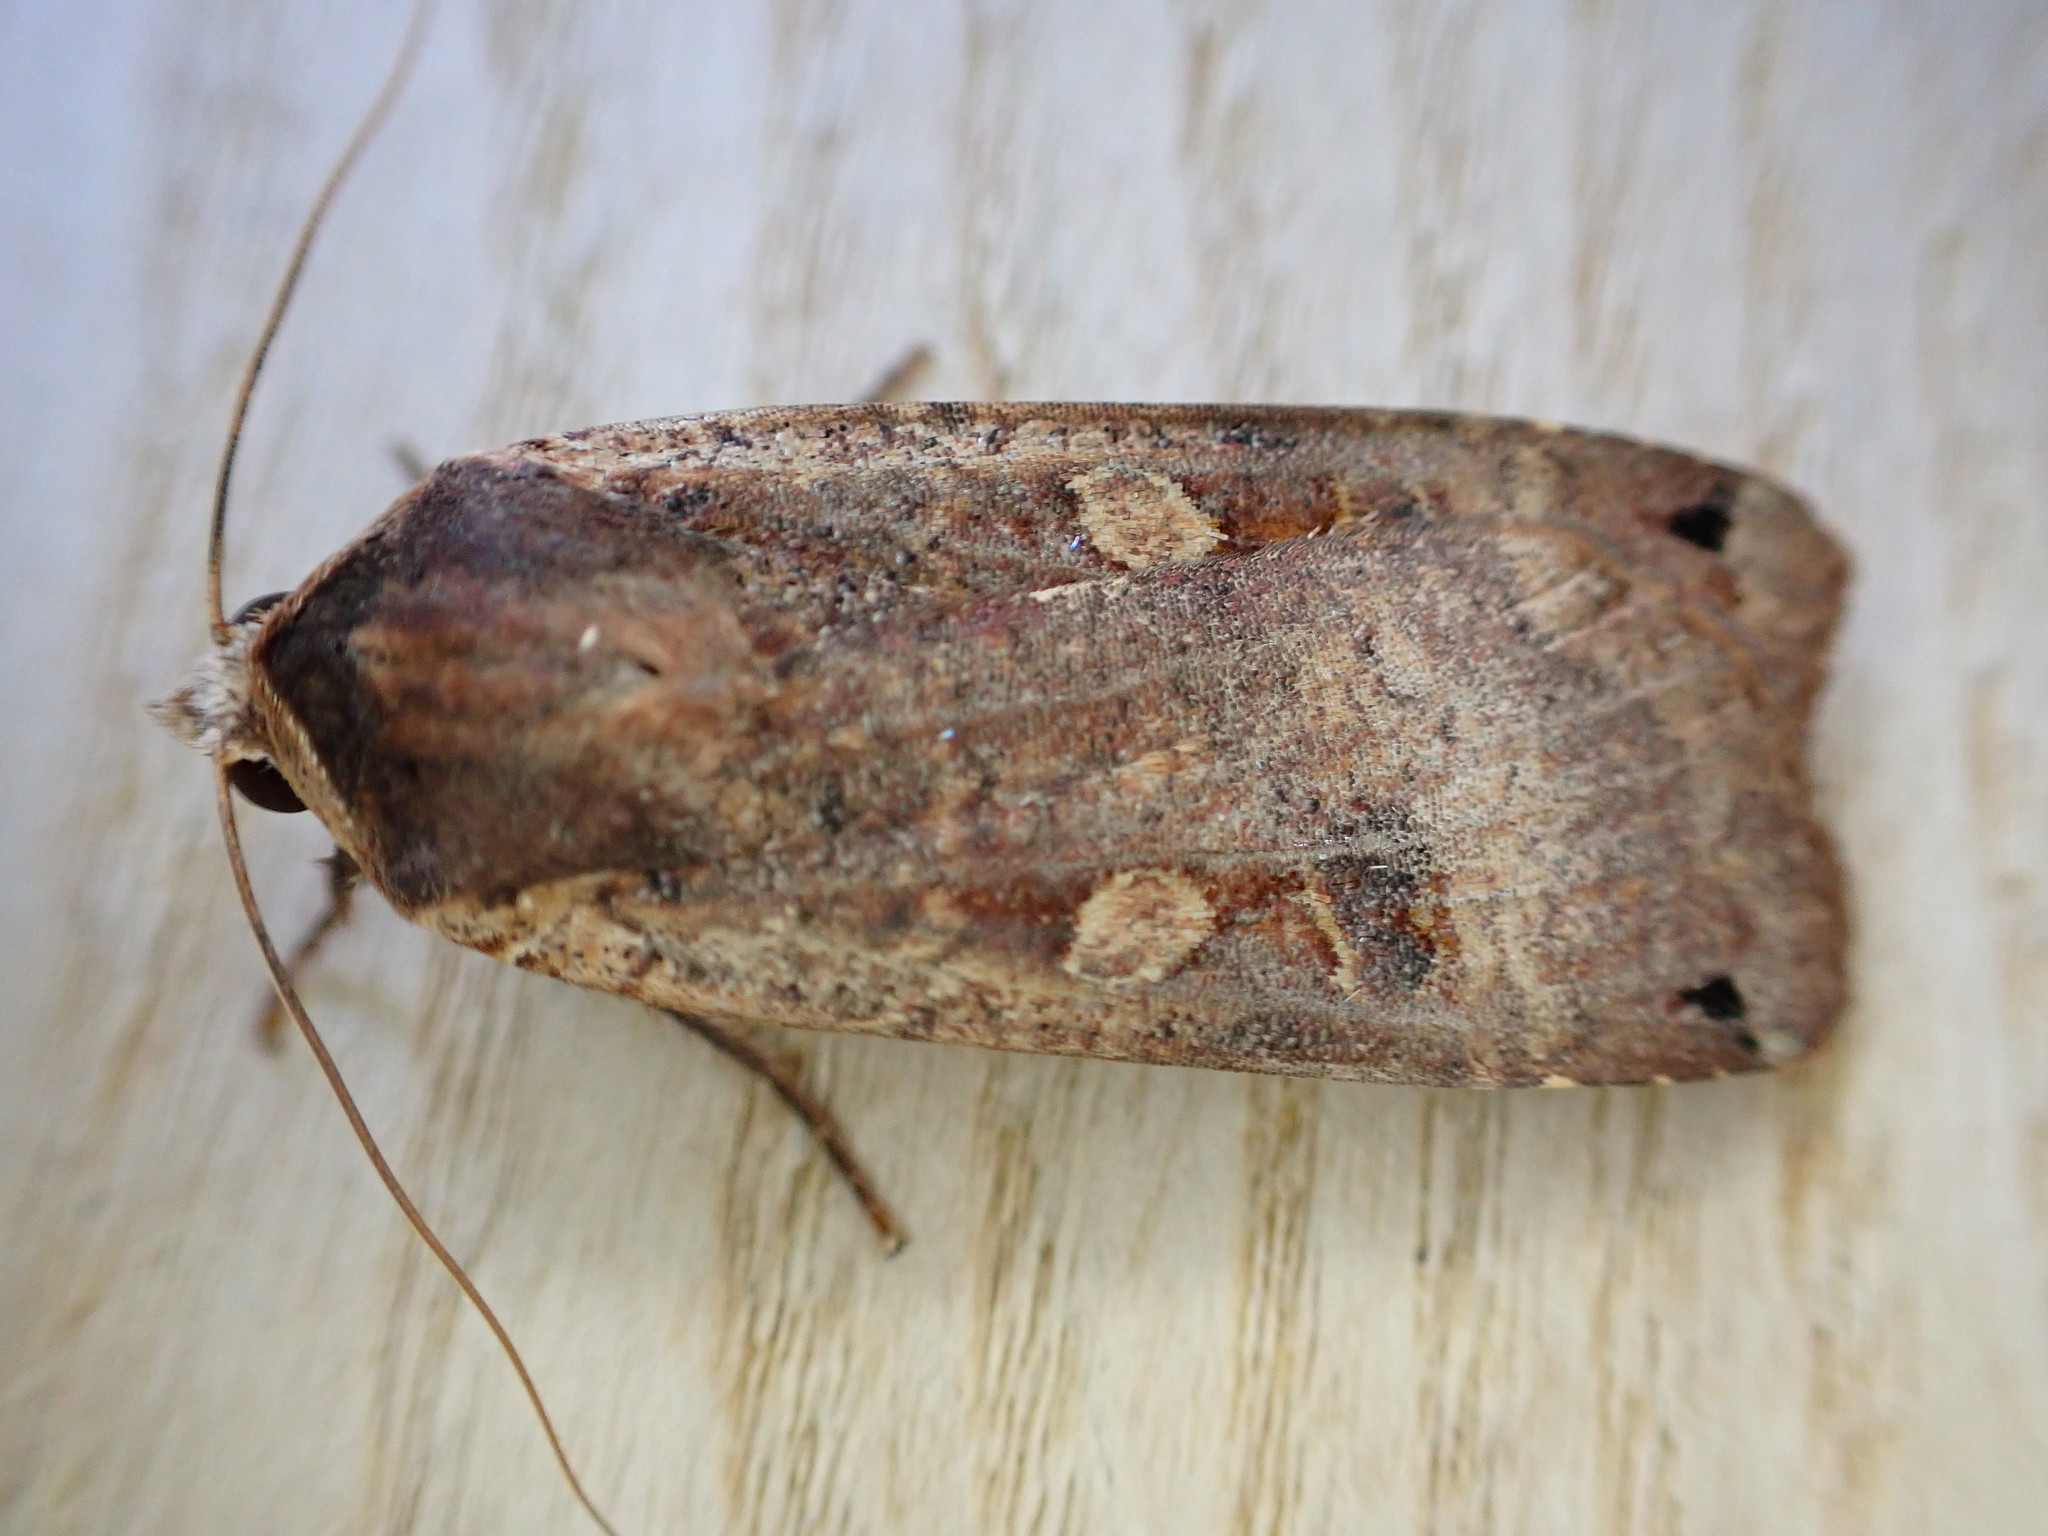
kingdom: Animalia
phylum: Arthropoda
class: Insecta
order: Lepidoptera
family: Noctuidae
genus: Noctua
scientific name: Noctua pronuba
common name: Large yellow underwing
